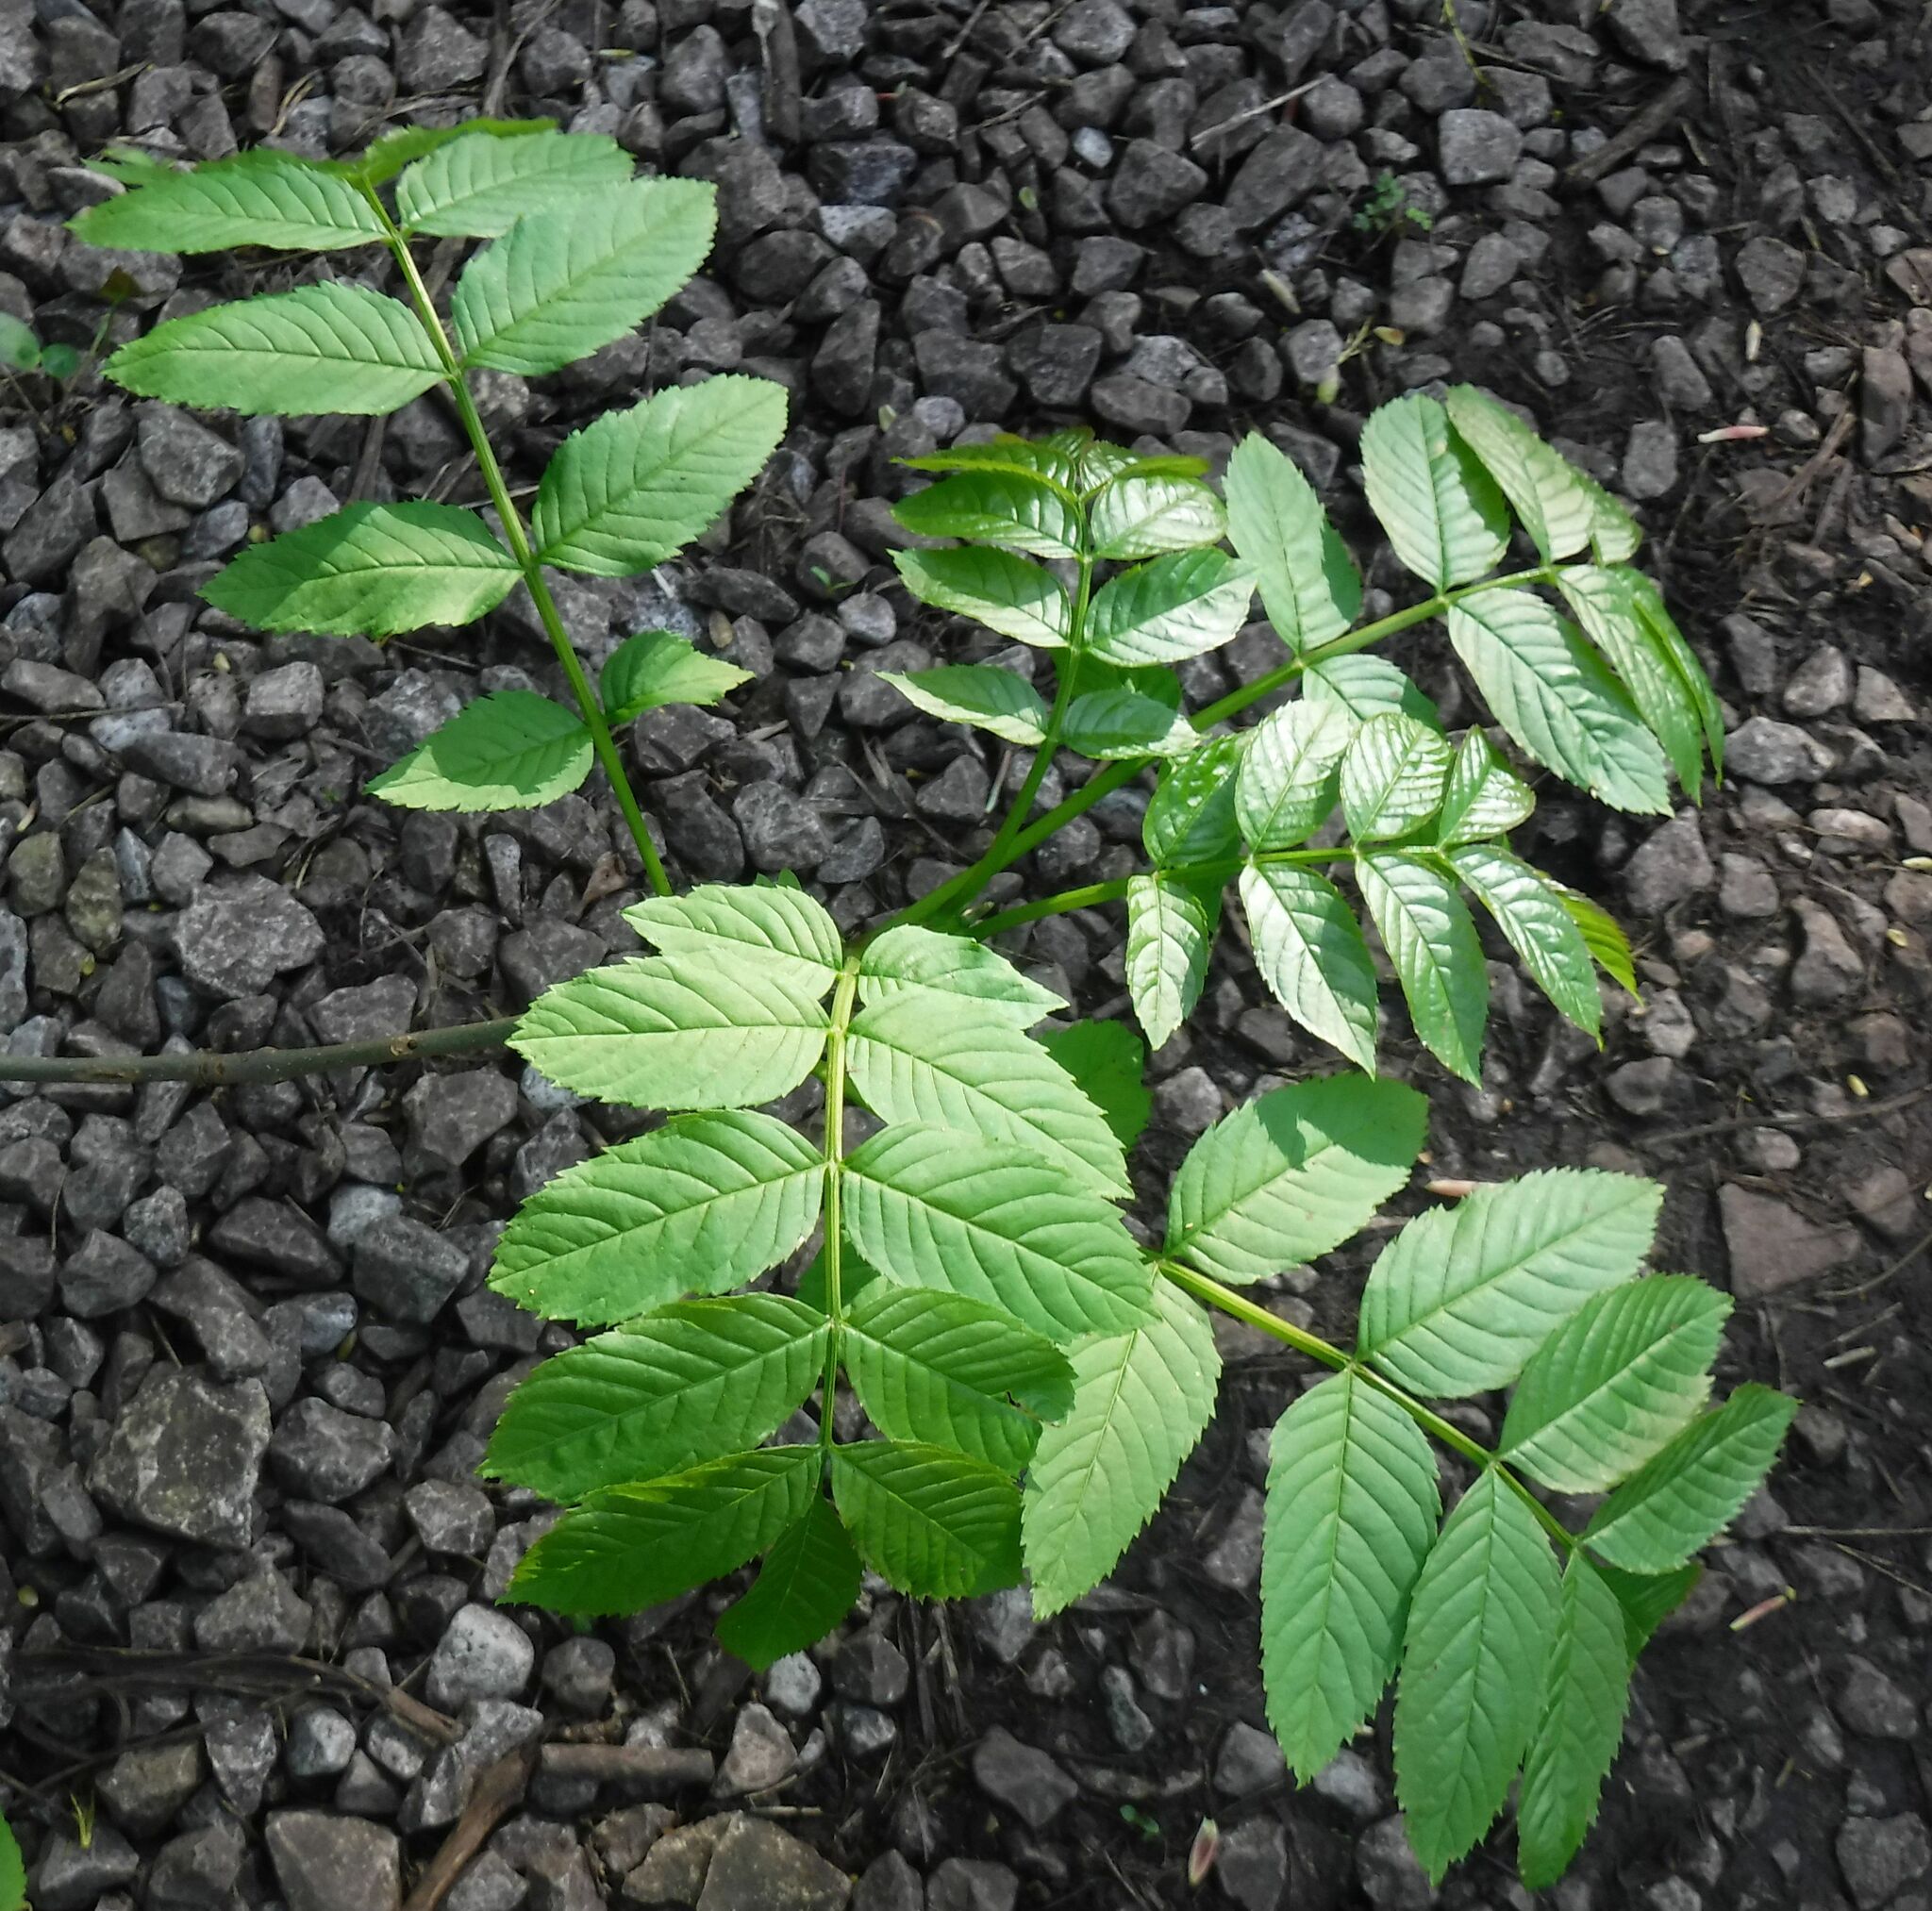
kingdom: Plantae
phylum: Tracheophyta
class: Magnoliopsida
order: Lamiales
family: Oleaceae
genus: Fraxinus
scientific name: Fraxinus excelsior
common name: European ash
